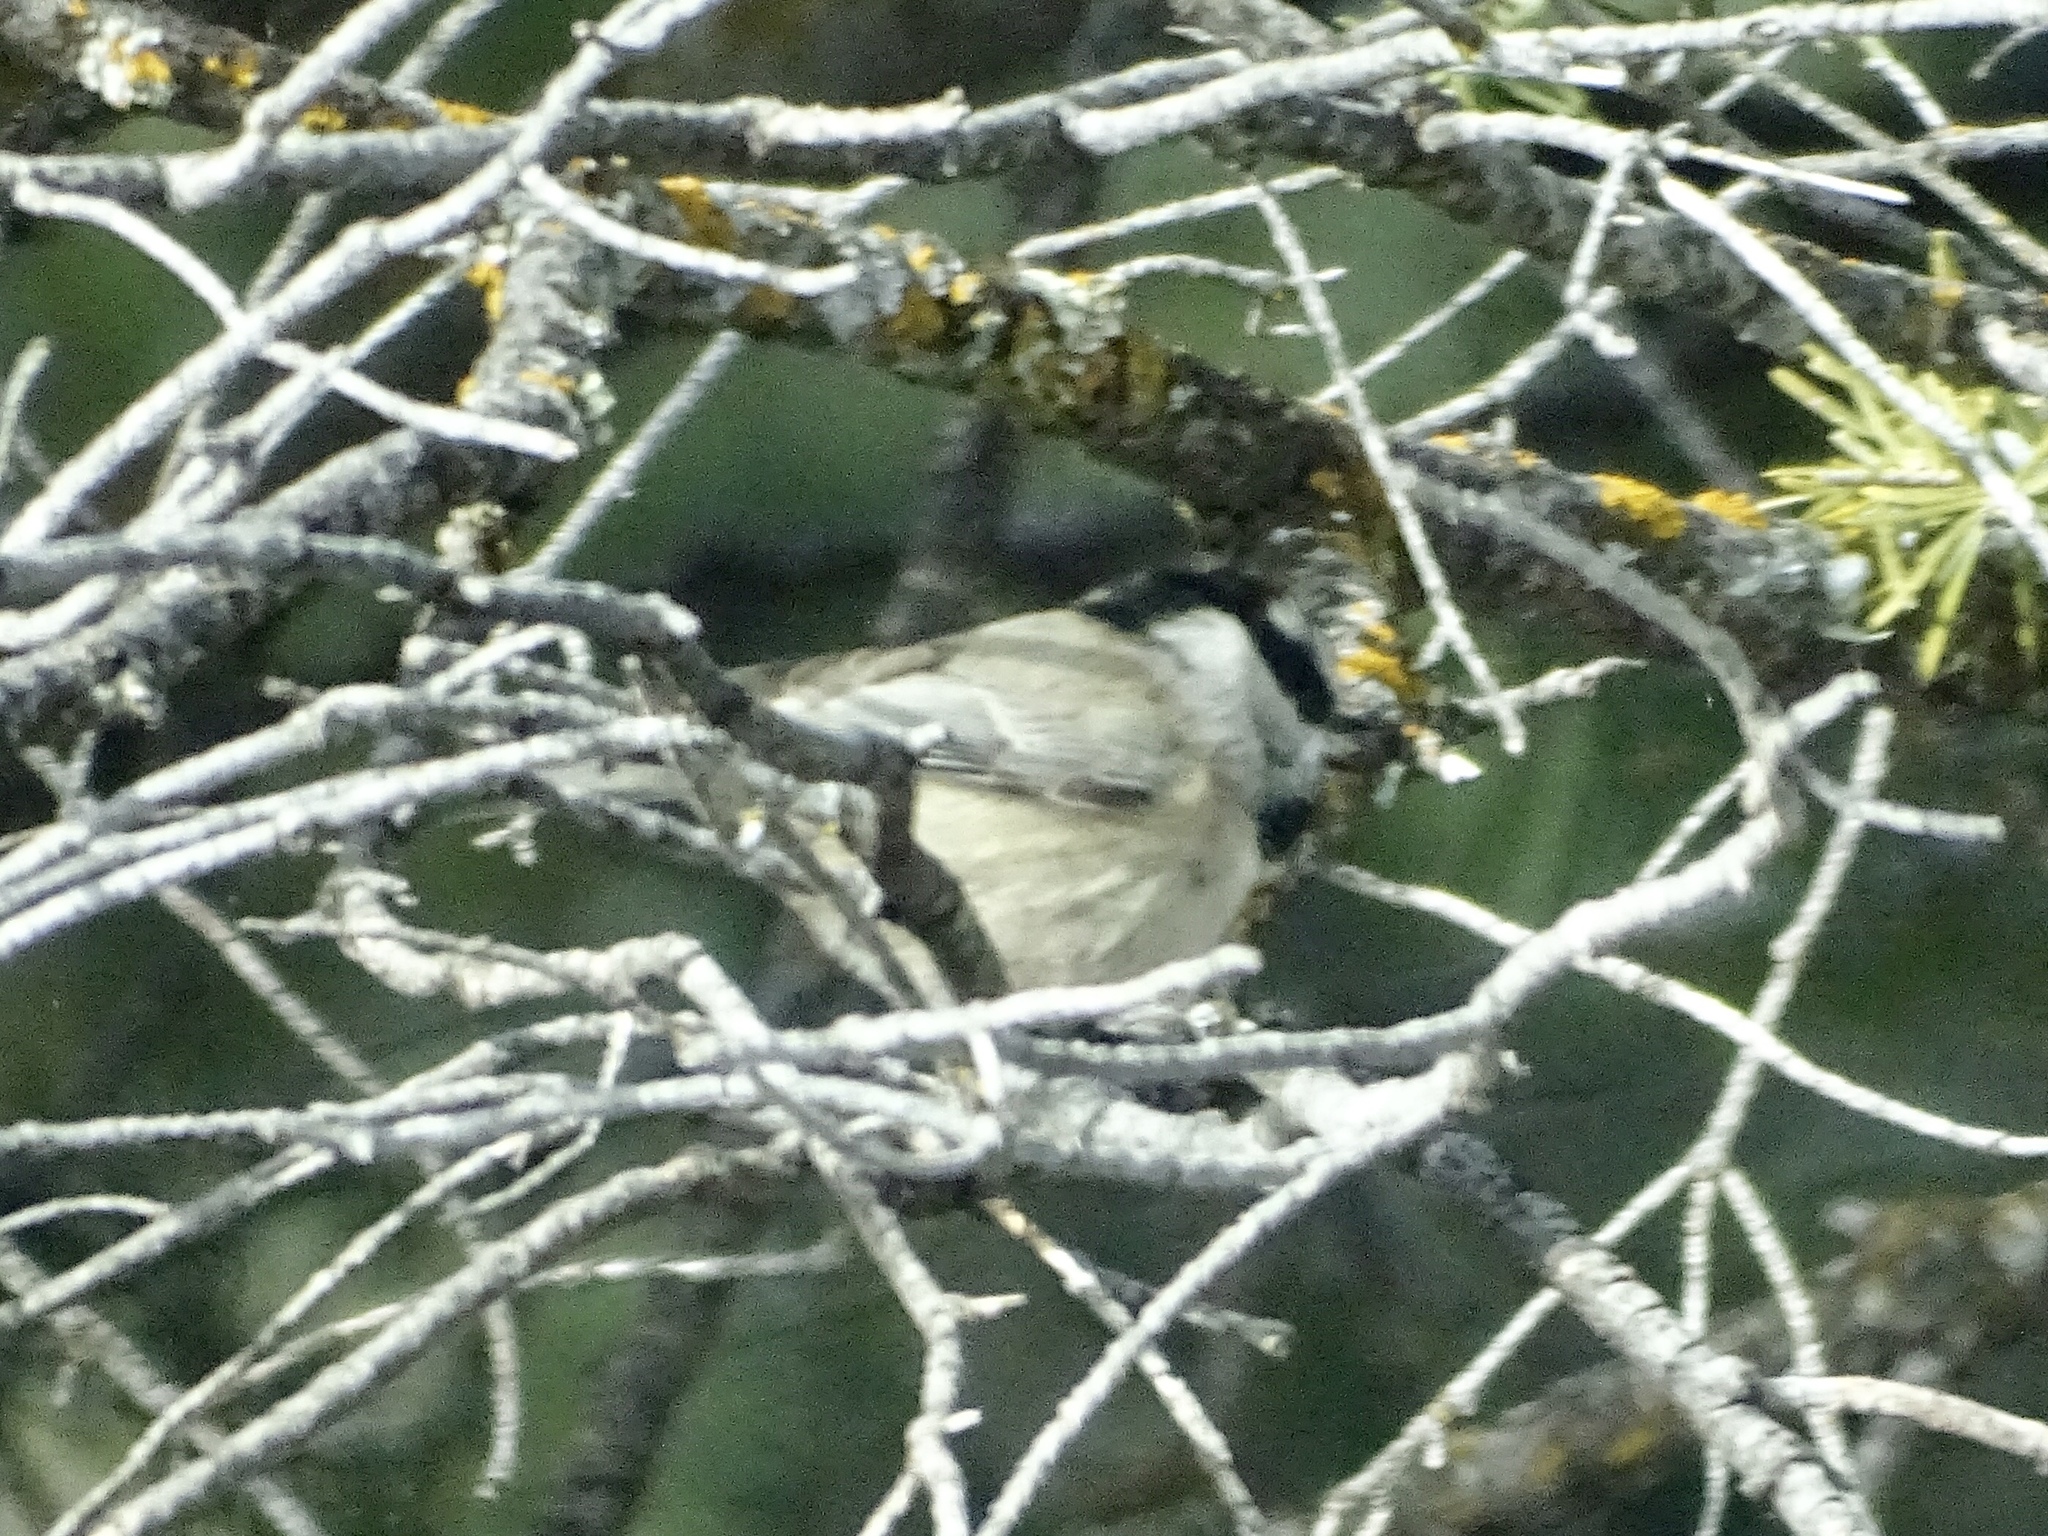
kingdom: Animalia
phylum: Chordata
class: Aves
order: Passeriformes
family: Paridae
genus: Poecile
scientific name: Poecile gambeli
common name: Mountain chickadee
